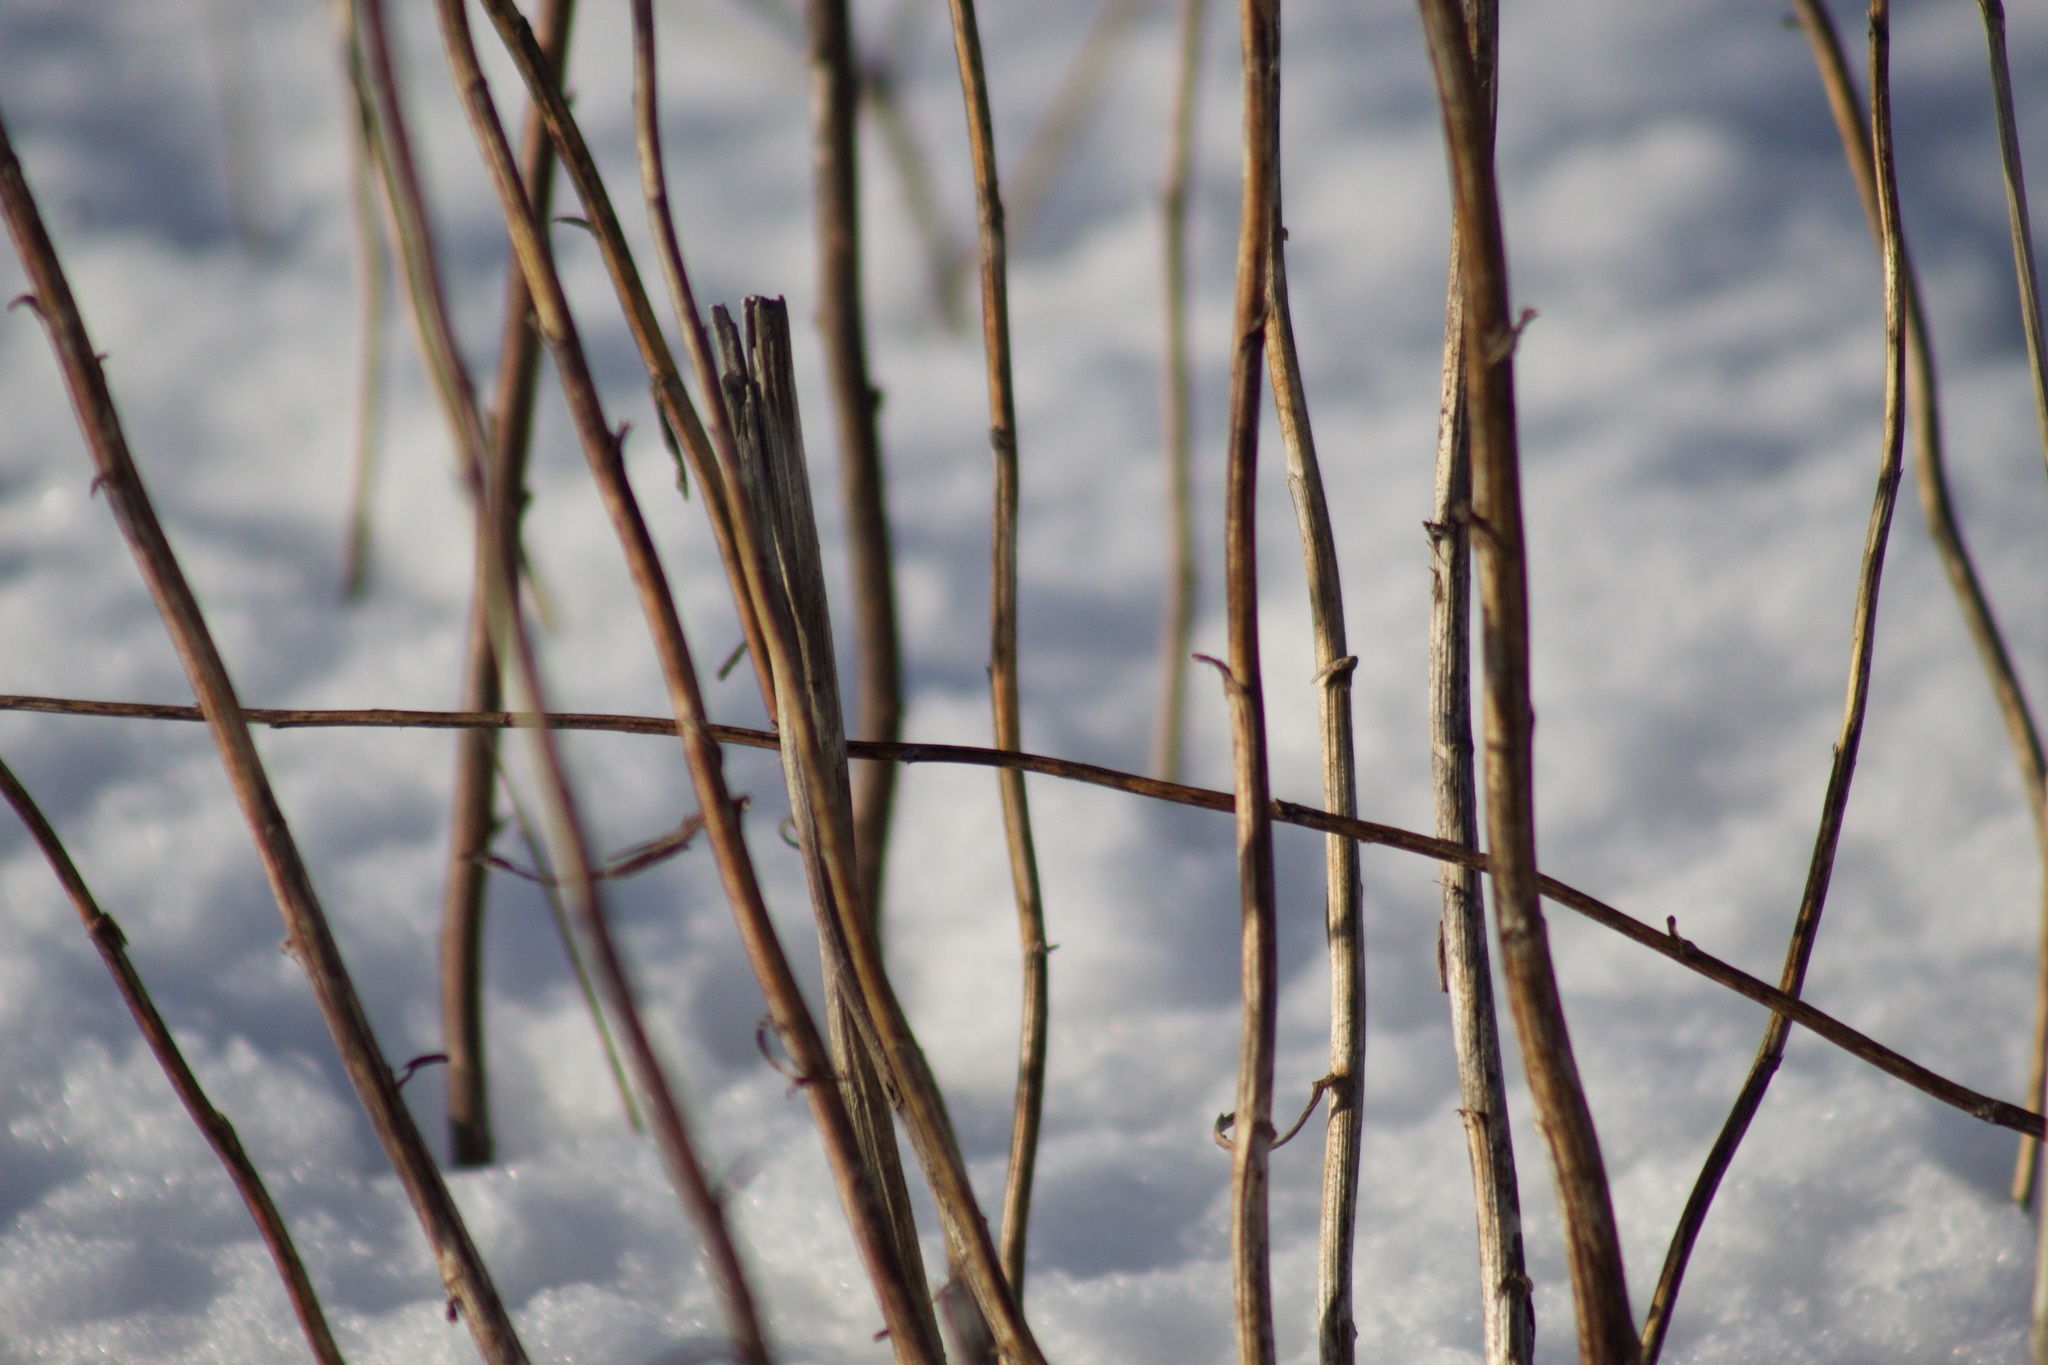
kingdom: Plantae
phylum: Tracheophyta
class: Magnoliopsida
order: Asterales
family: Asteraceae
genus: Solidago
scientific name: Solidago canadensis
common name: Canada goldenrod
